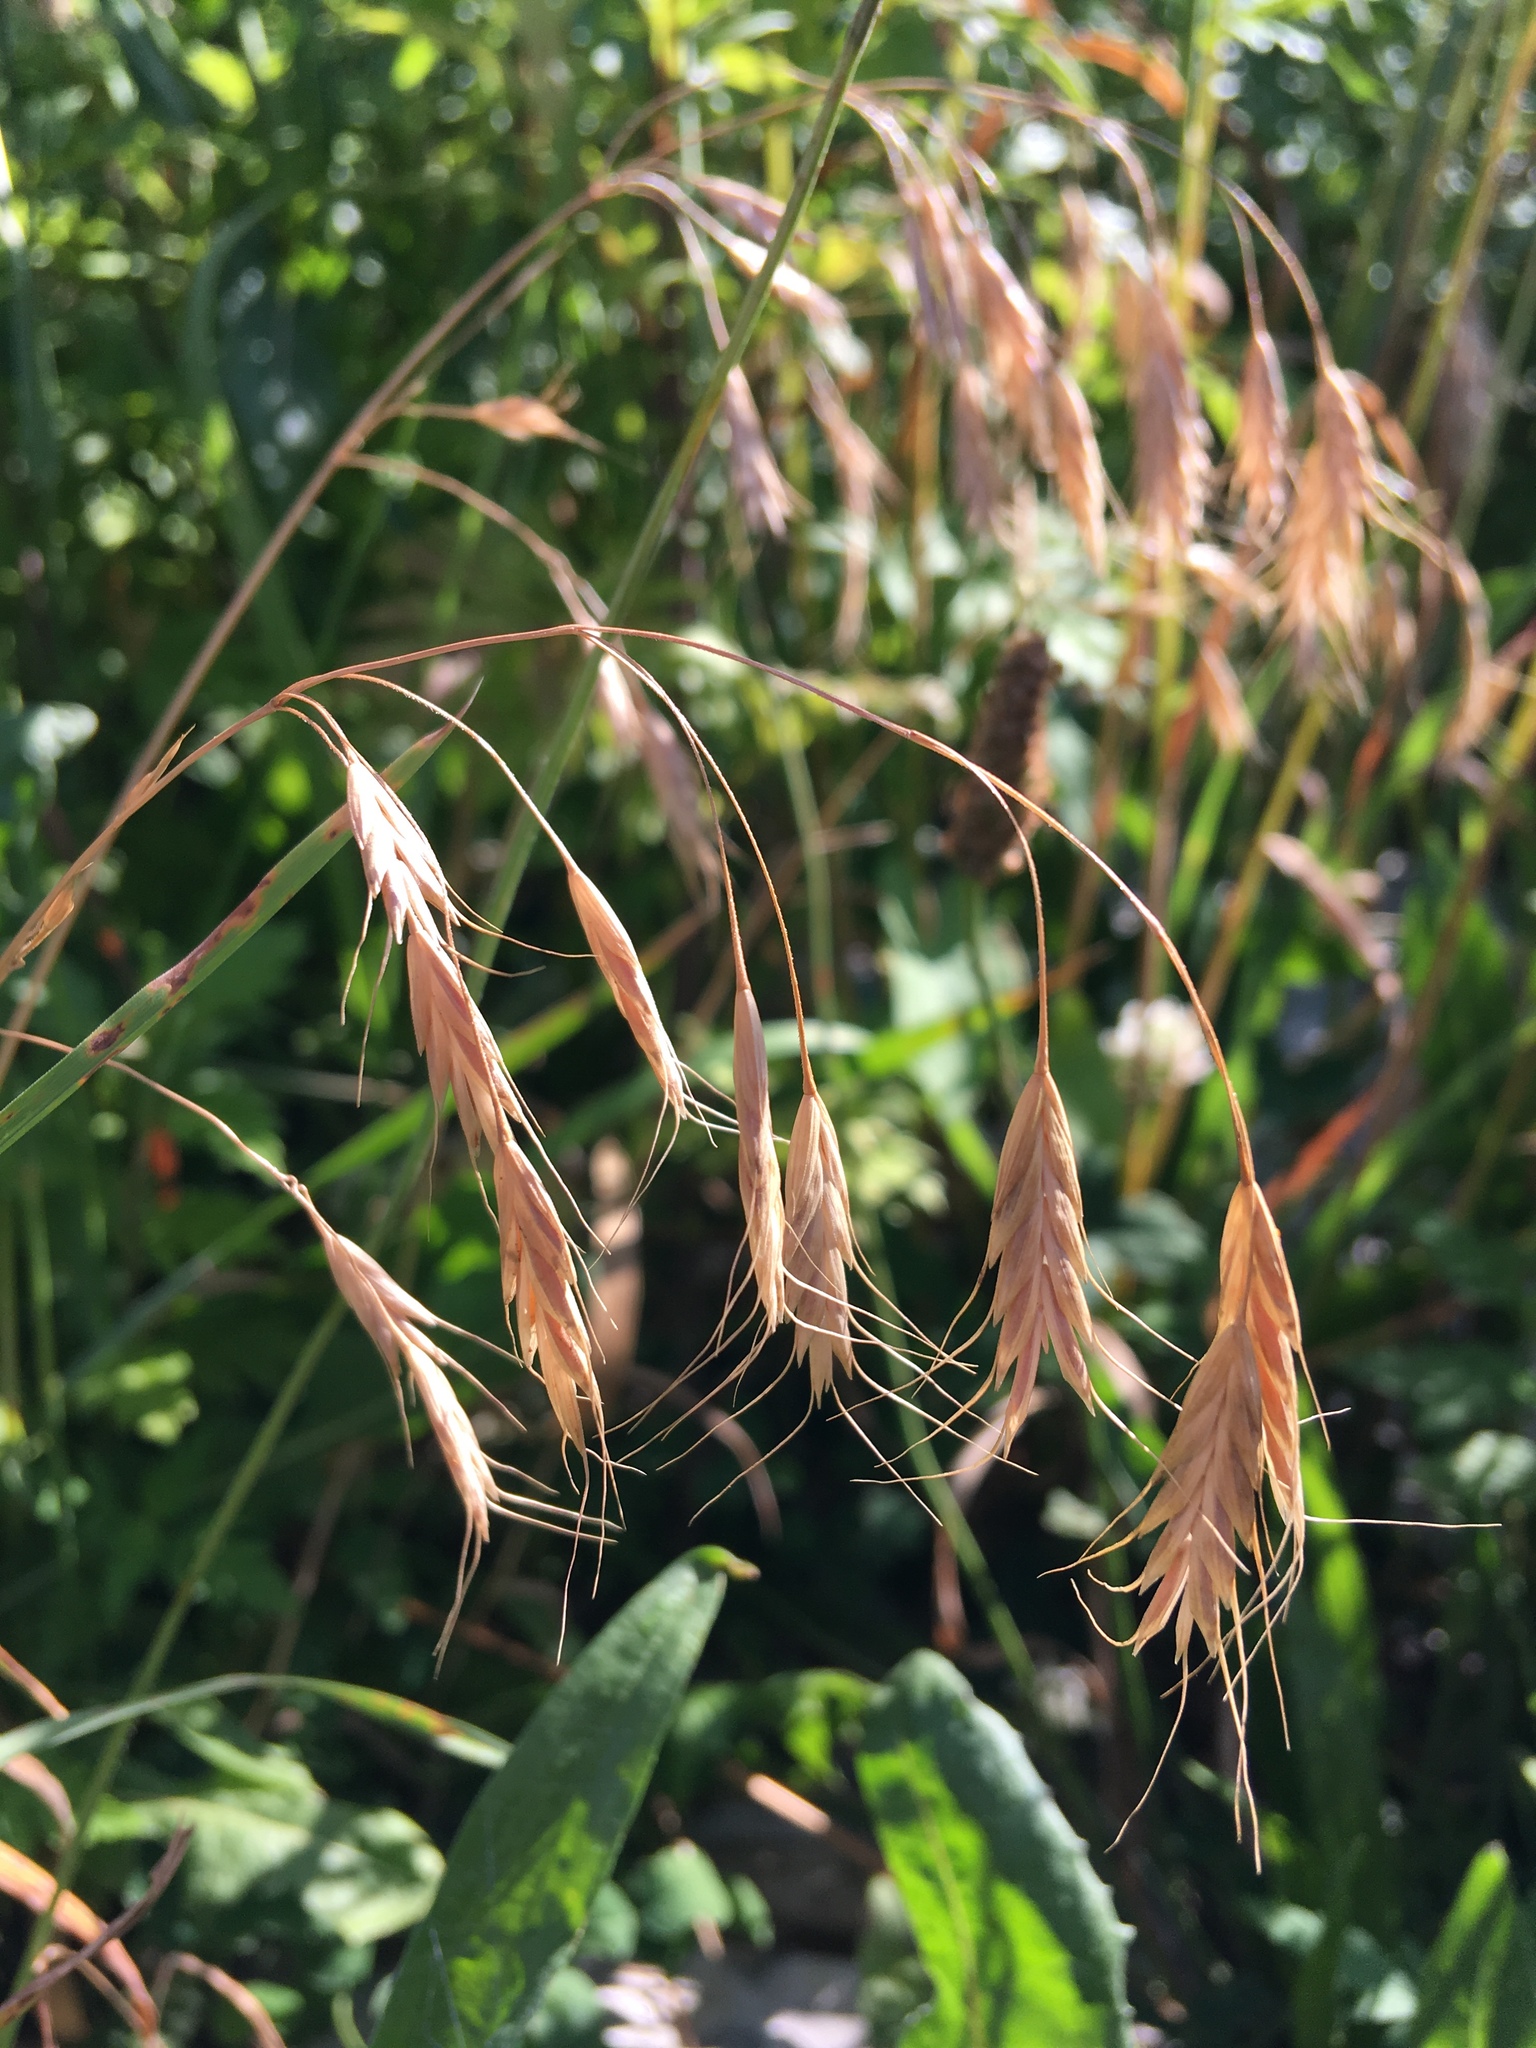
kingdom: Plantae
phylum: Tracheophyta
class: Liliopsida
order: Poales
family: Poaceae
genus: Chasmanthium
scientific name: Chasmanthium latifolium
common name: Broad-leaved chasmanthium
